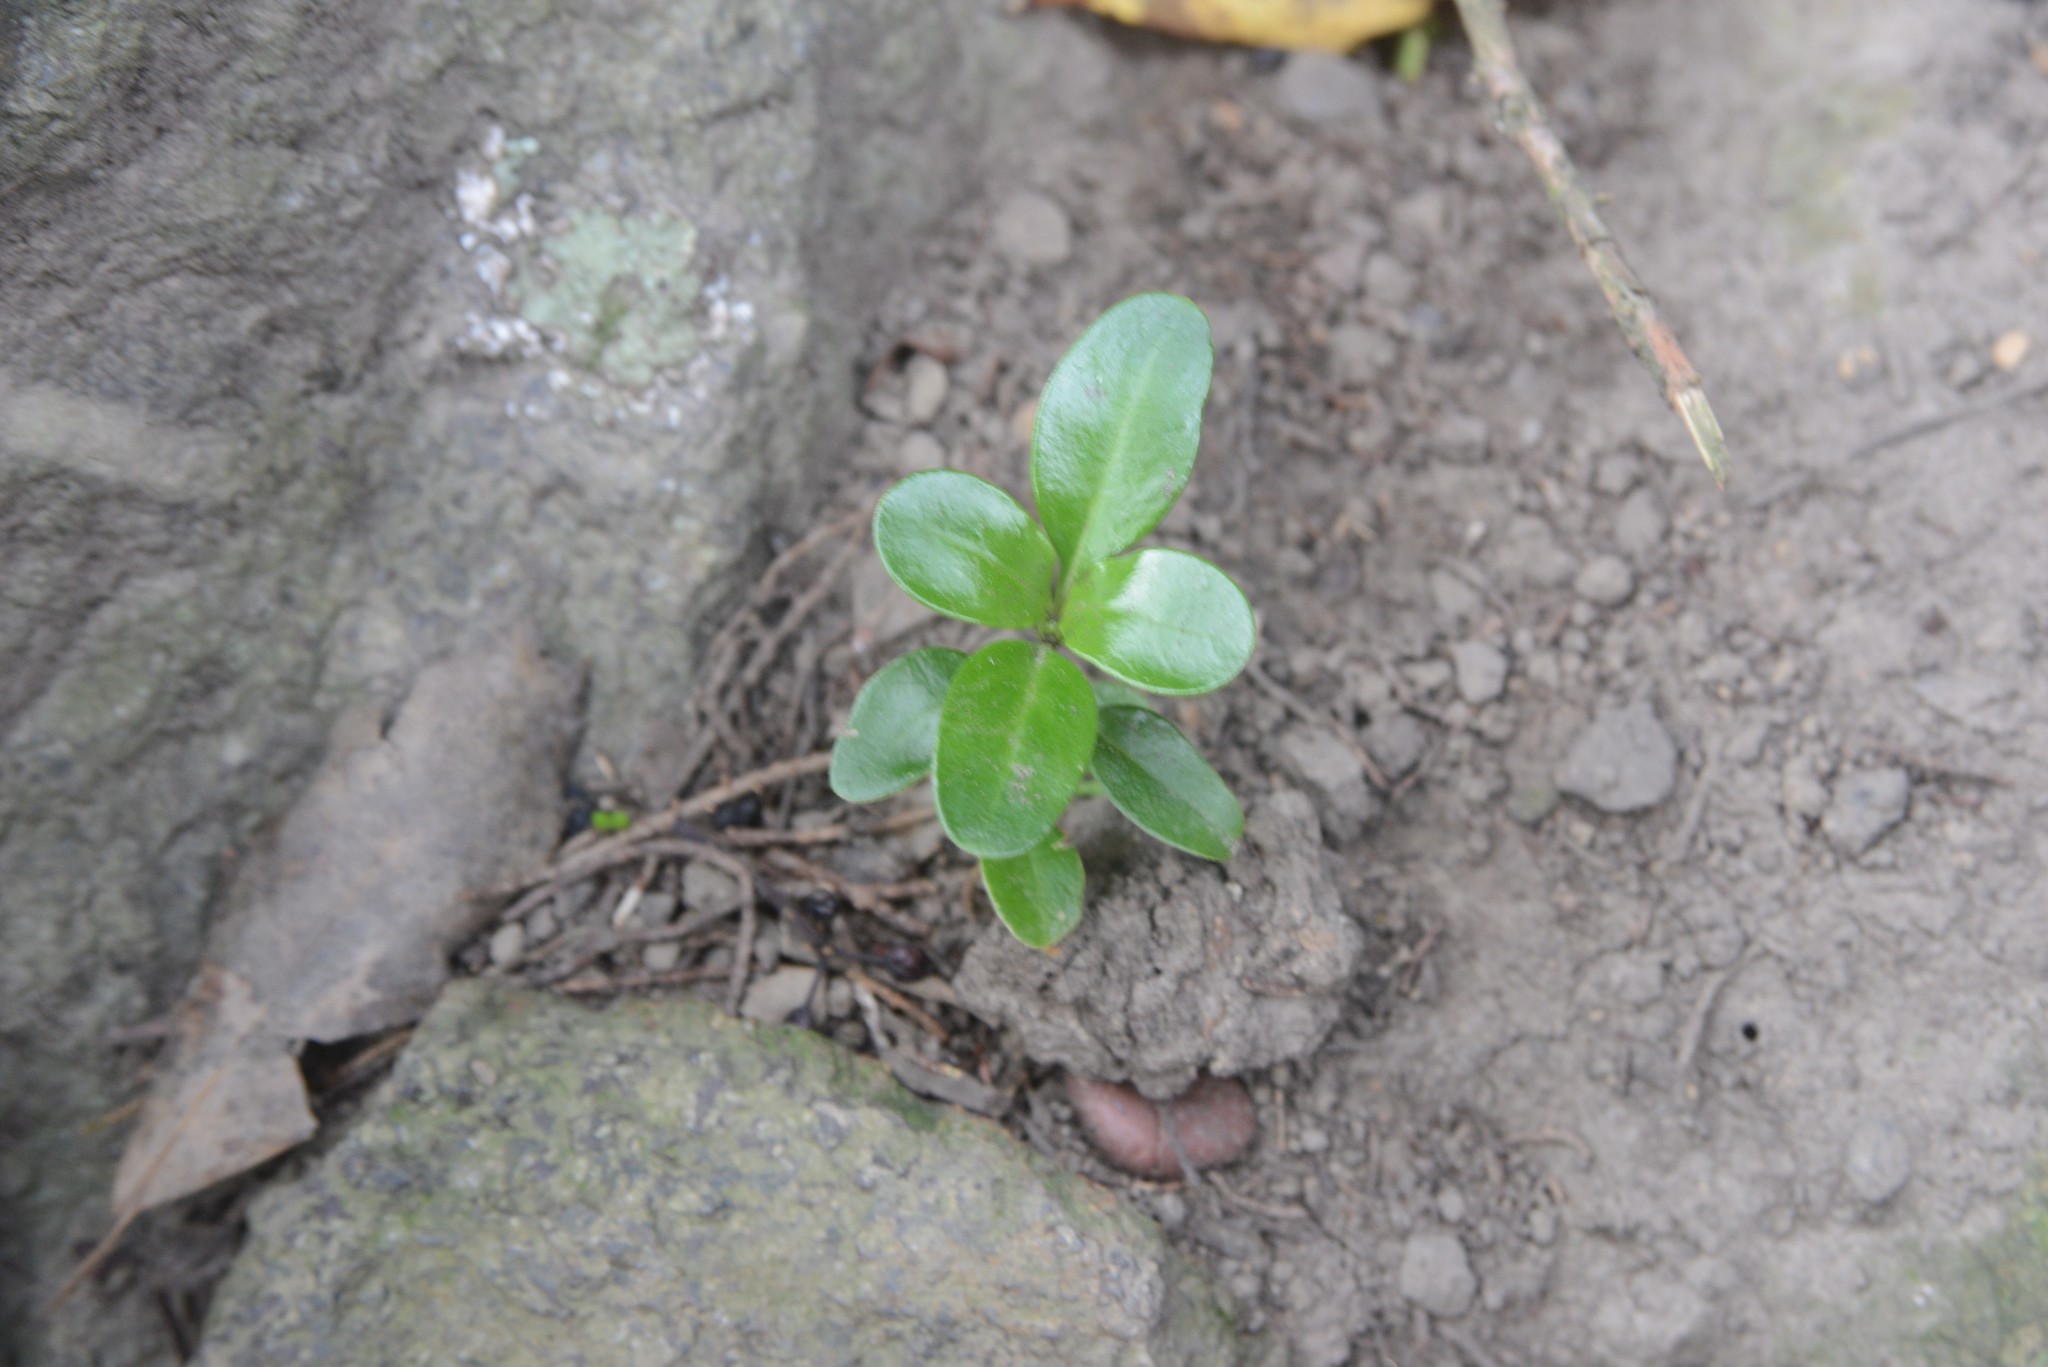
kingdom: Plantae
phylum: Tracheophyta
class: Magnoliopsida
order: Gentianales
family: Rubiaceae
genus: Coprosma
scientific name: Coprosma repens
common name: Tree bedstraw
